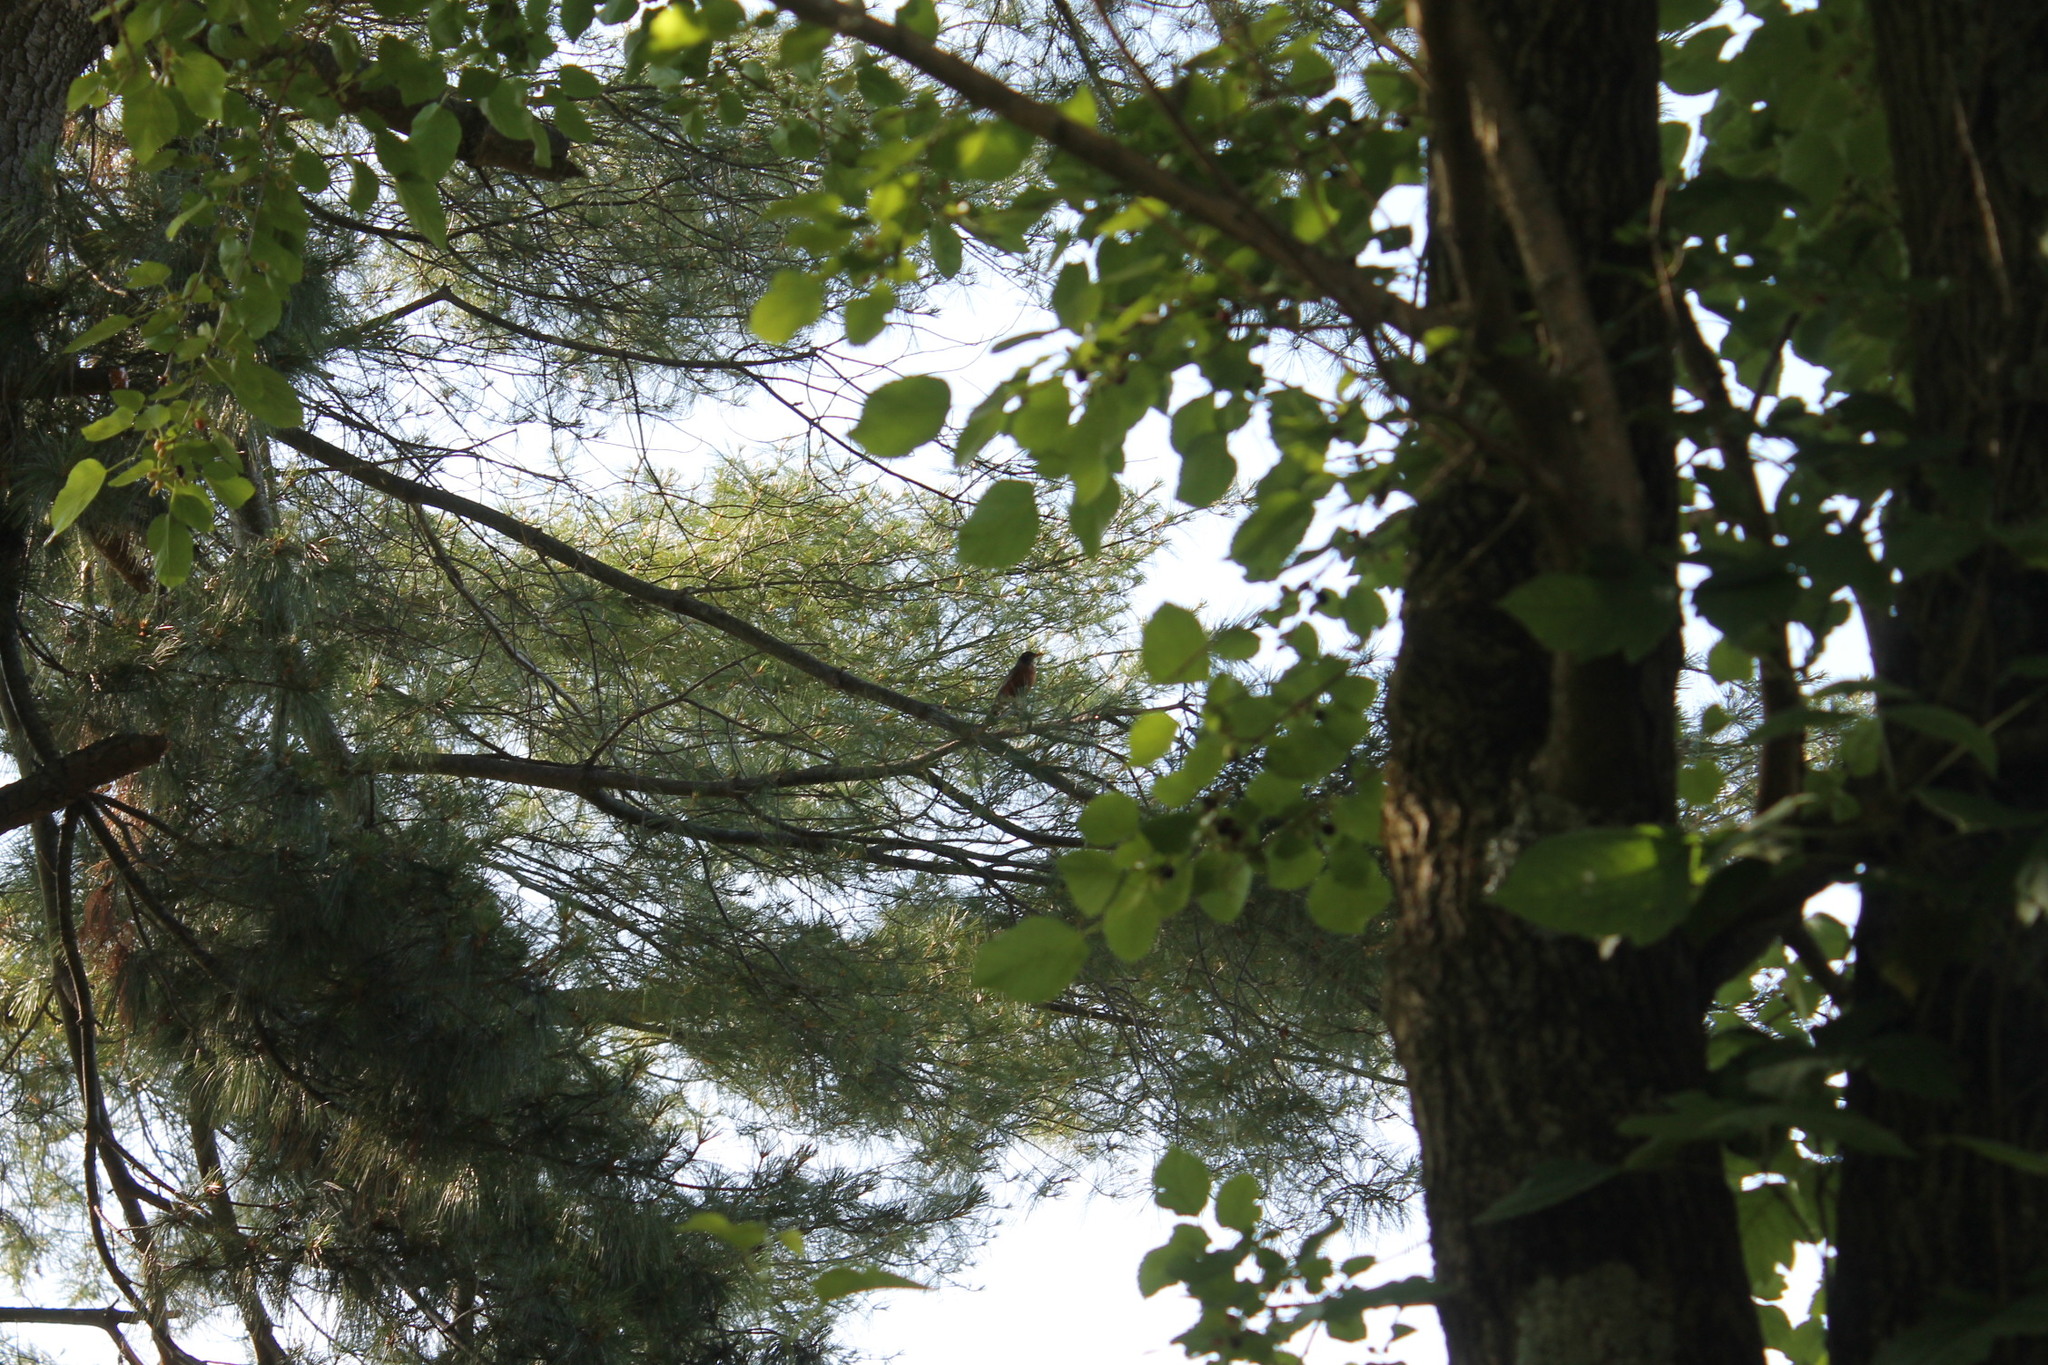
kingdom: Animalia
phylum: Chordata
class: Aves
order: Passeriformes
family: Turdidae
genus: Turdus
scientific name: Turdus migratorius
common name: American robin
